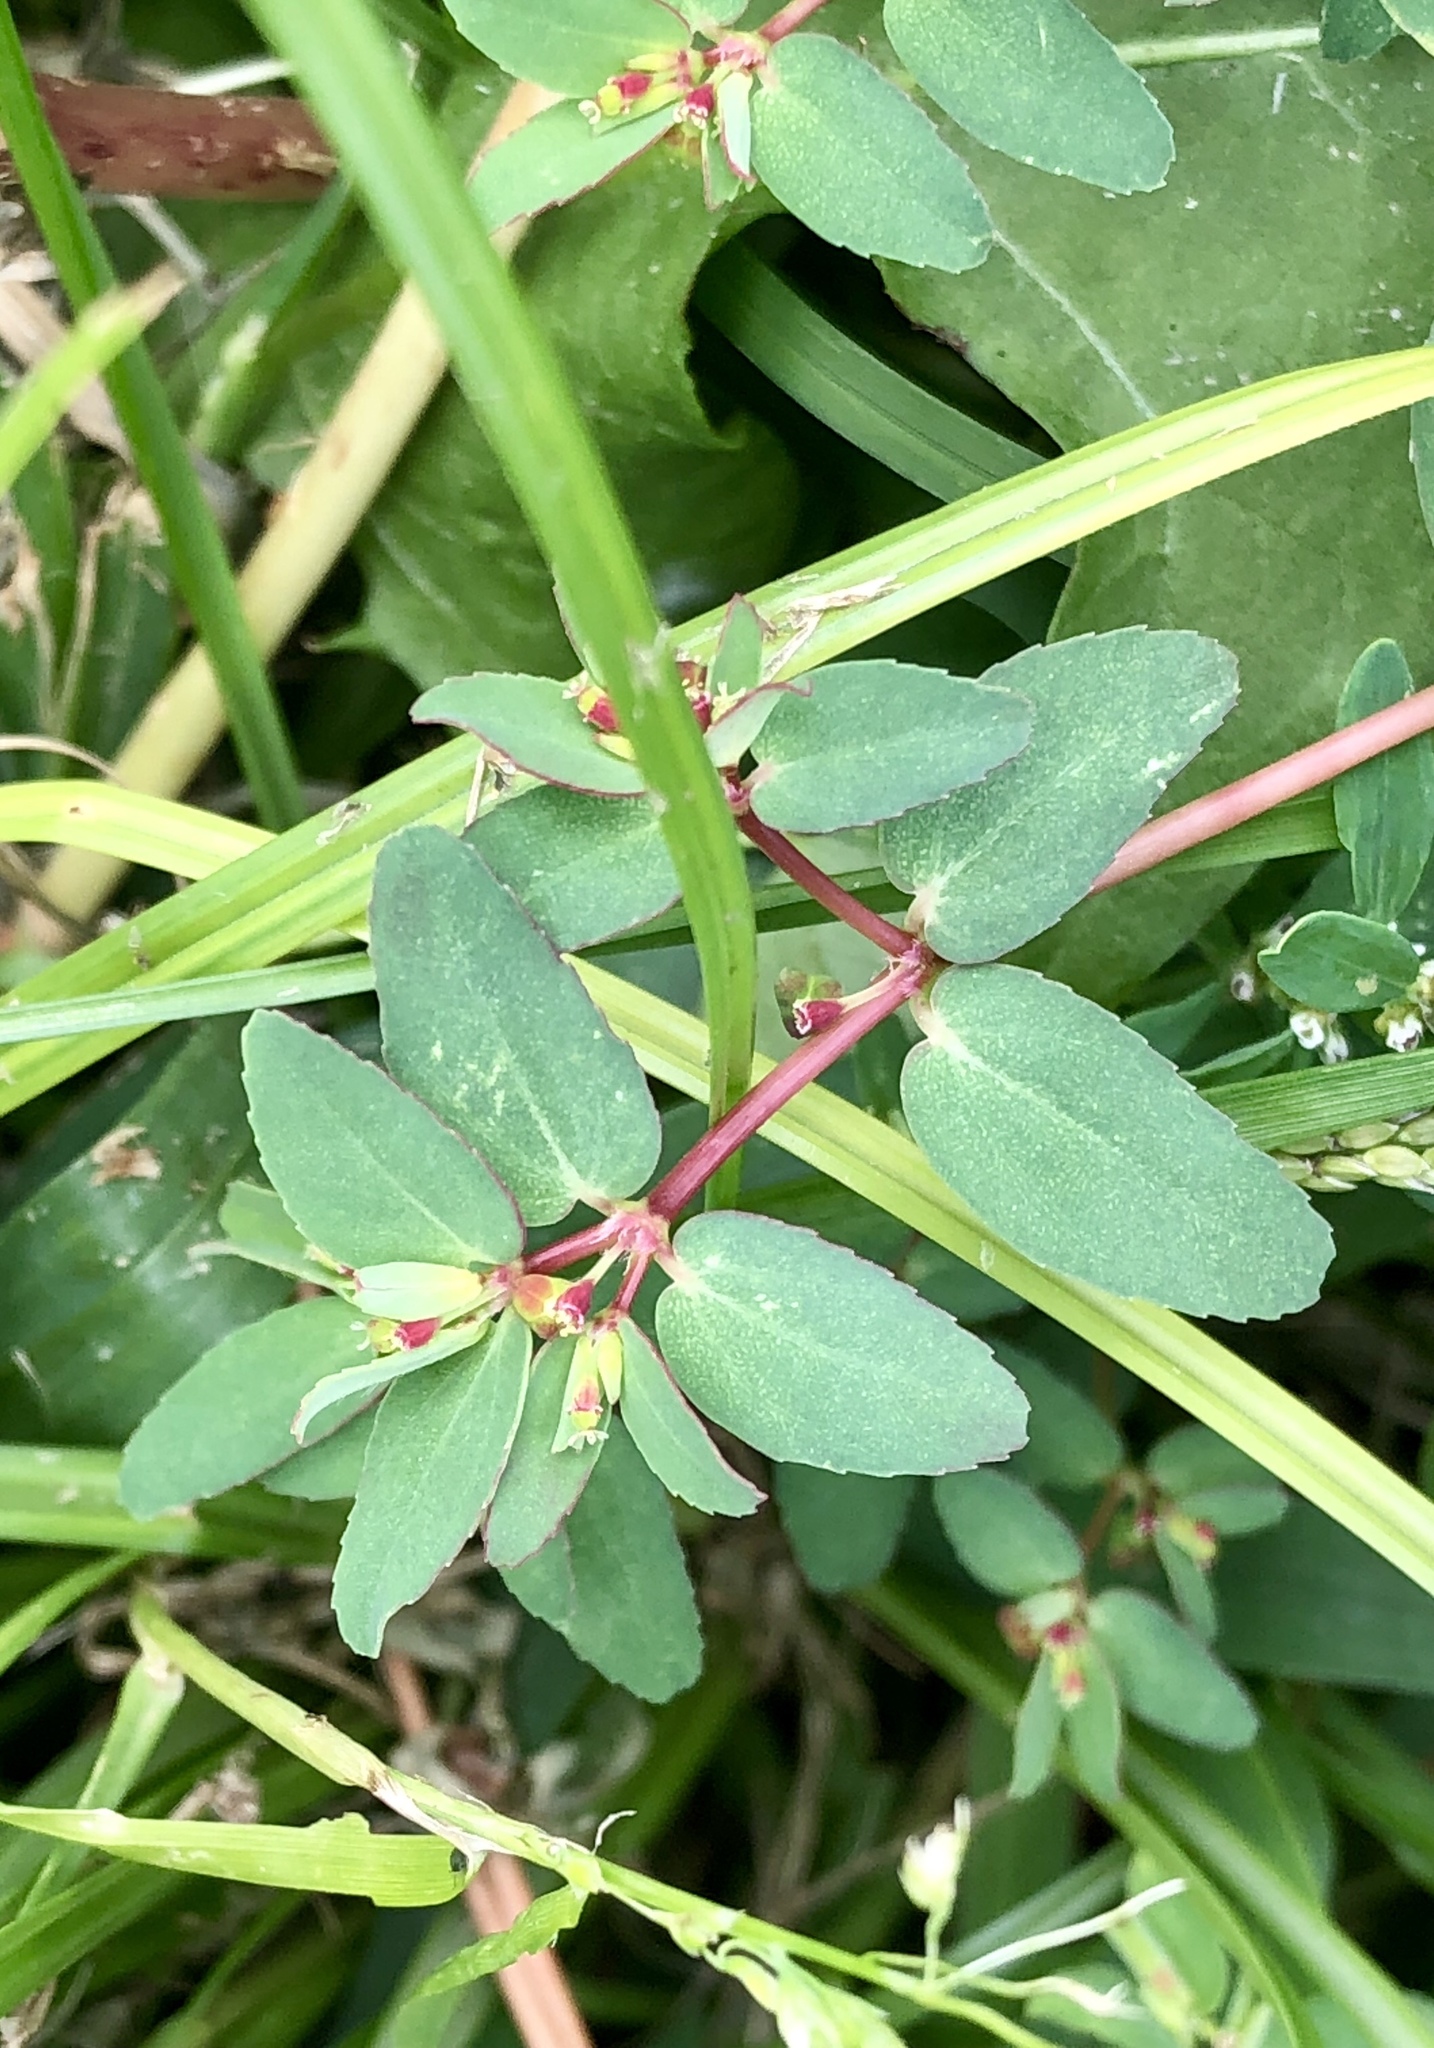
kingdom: Plantae
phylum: Tracheophyta
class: Magnoliopsida
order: Malpighiales
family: Euphorbiaceae
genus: Euphorbia
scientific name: Euphorbia vermiculata
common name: Hairy spurge
